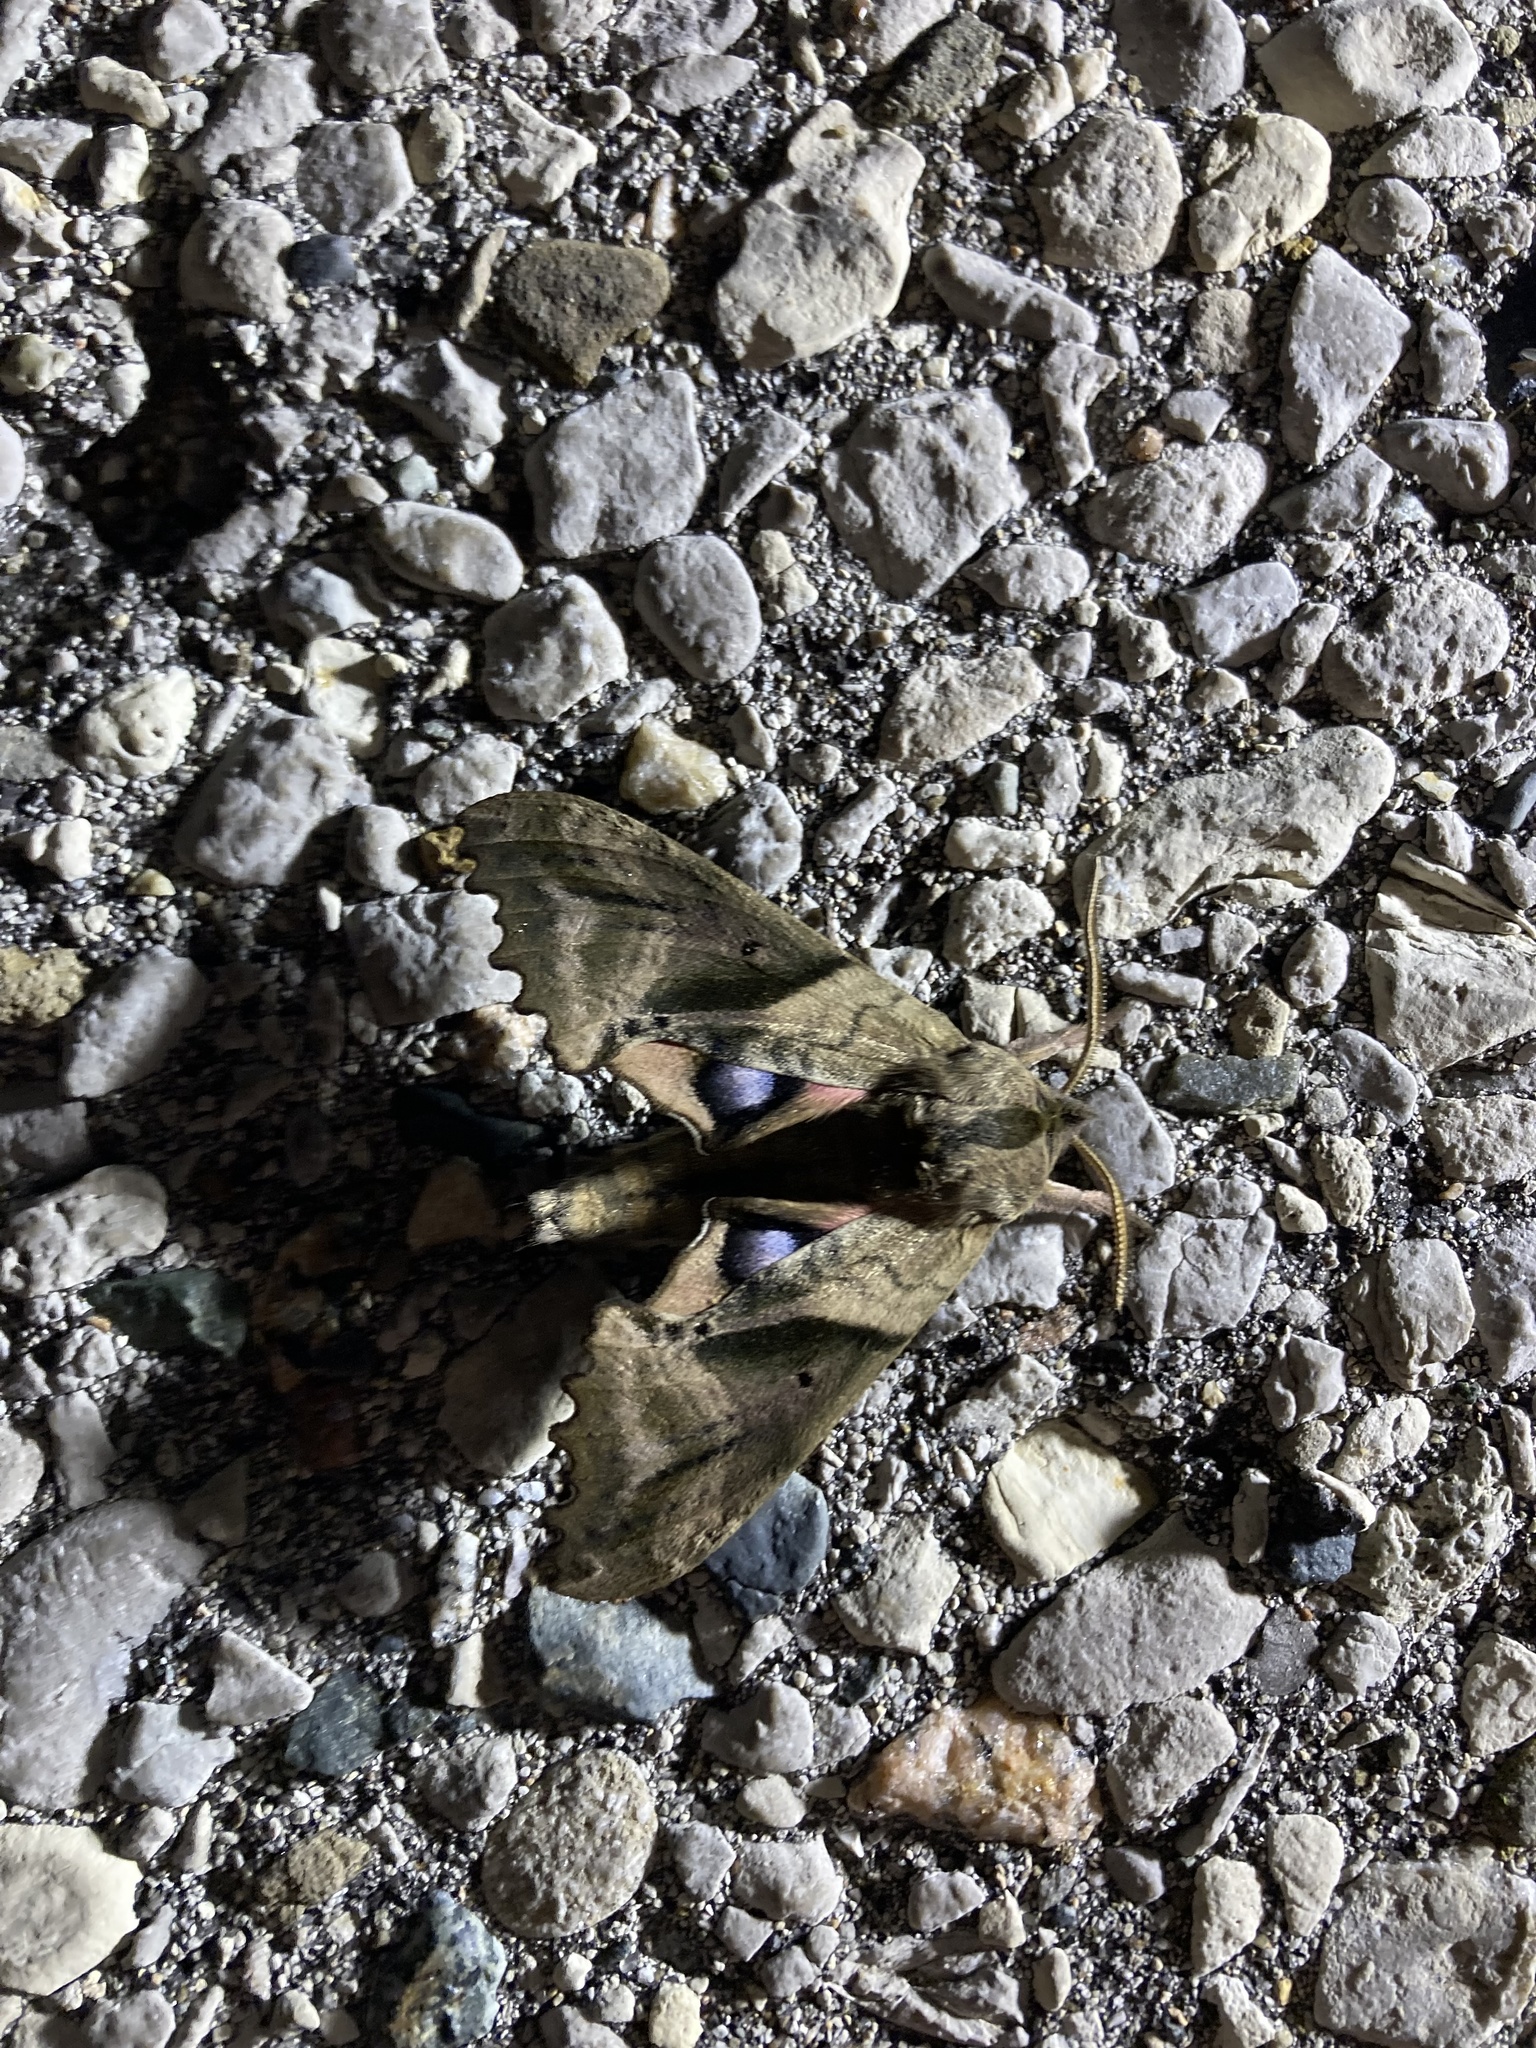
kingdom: Animalia
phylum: Arthropoda
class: Insecta
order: Lepidoptera
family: Sphingidae
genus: Paonias
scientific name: Paonias excaecata
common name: Blind-eyed sphinx
